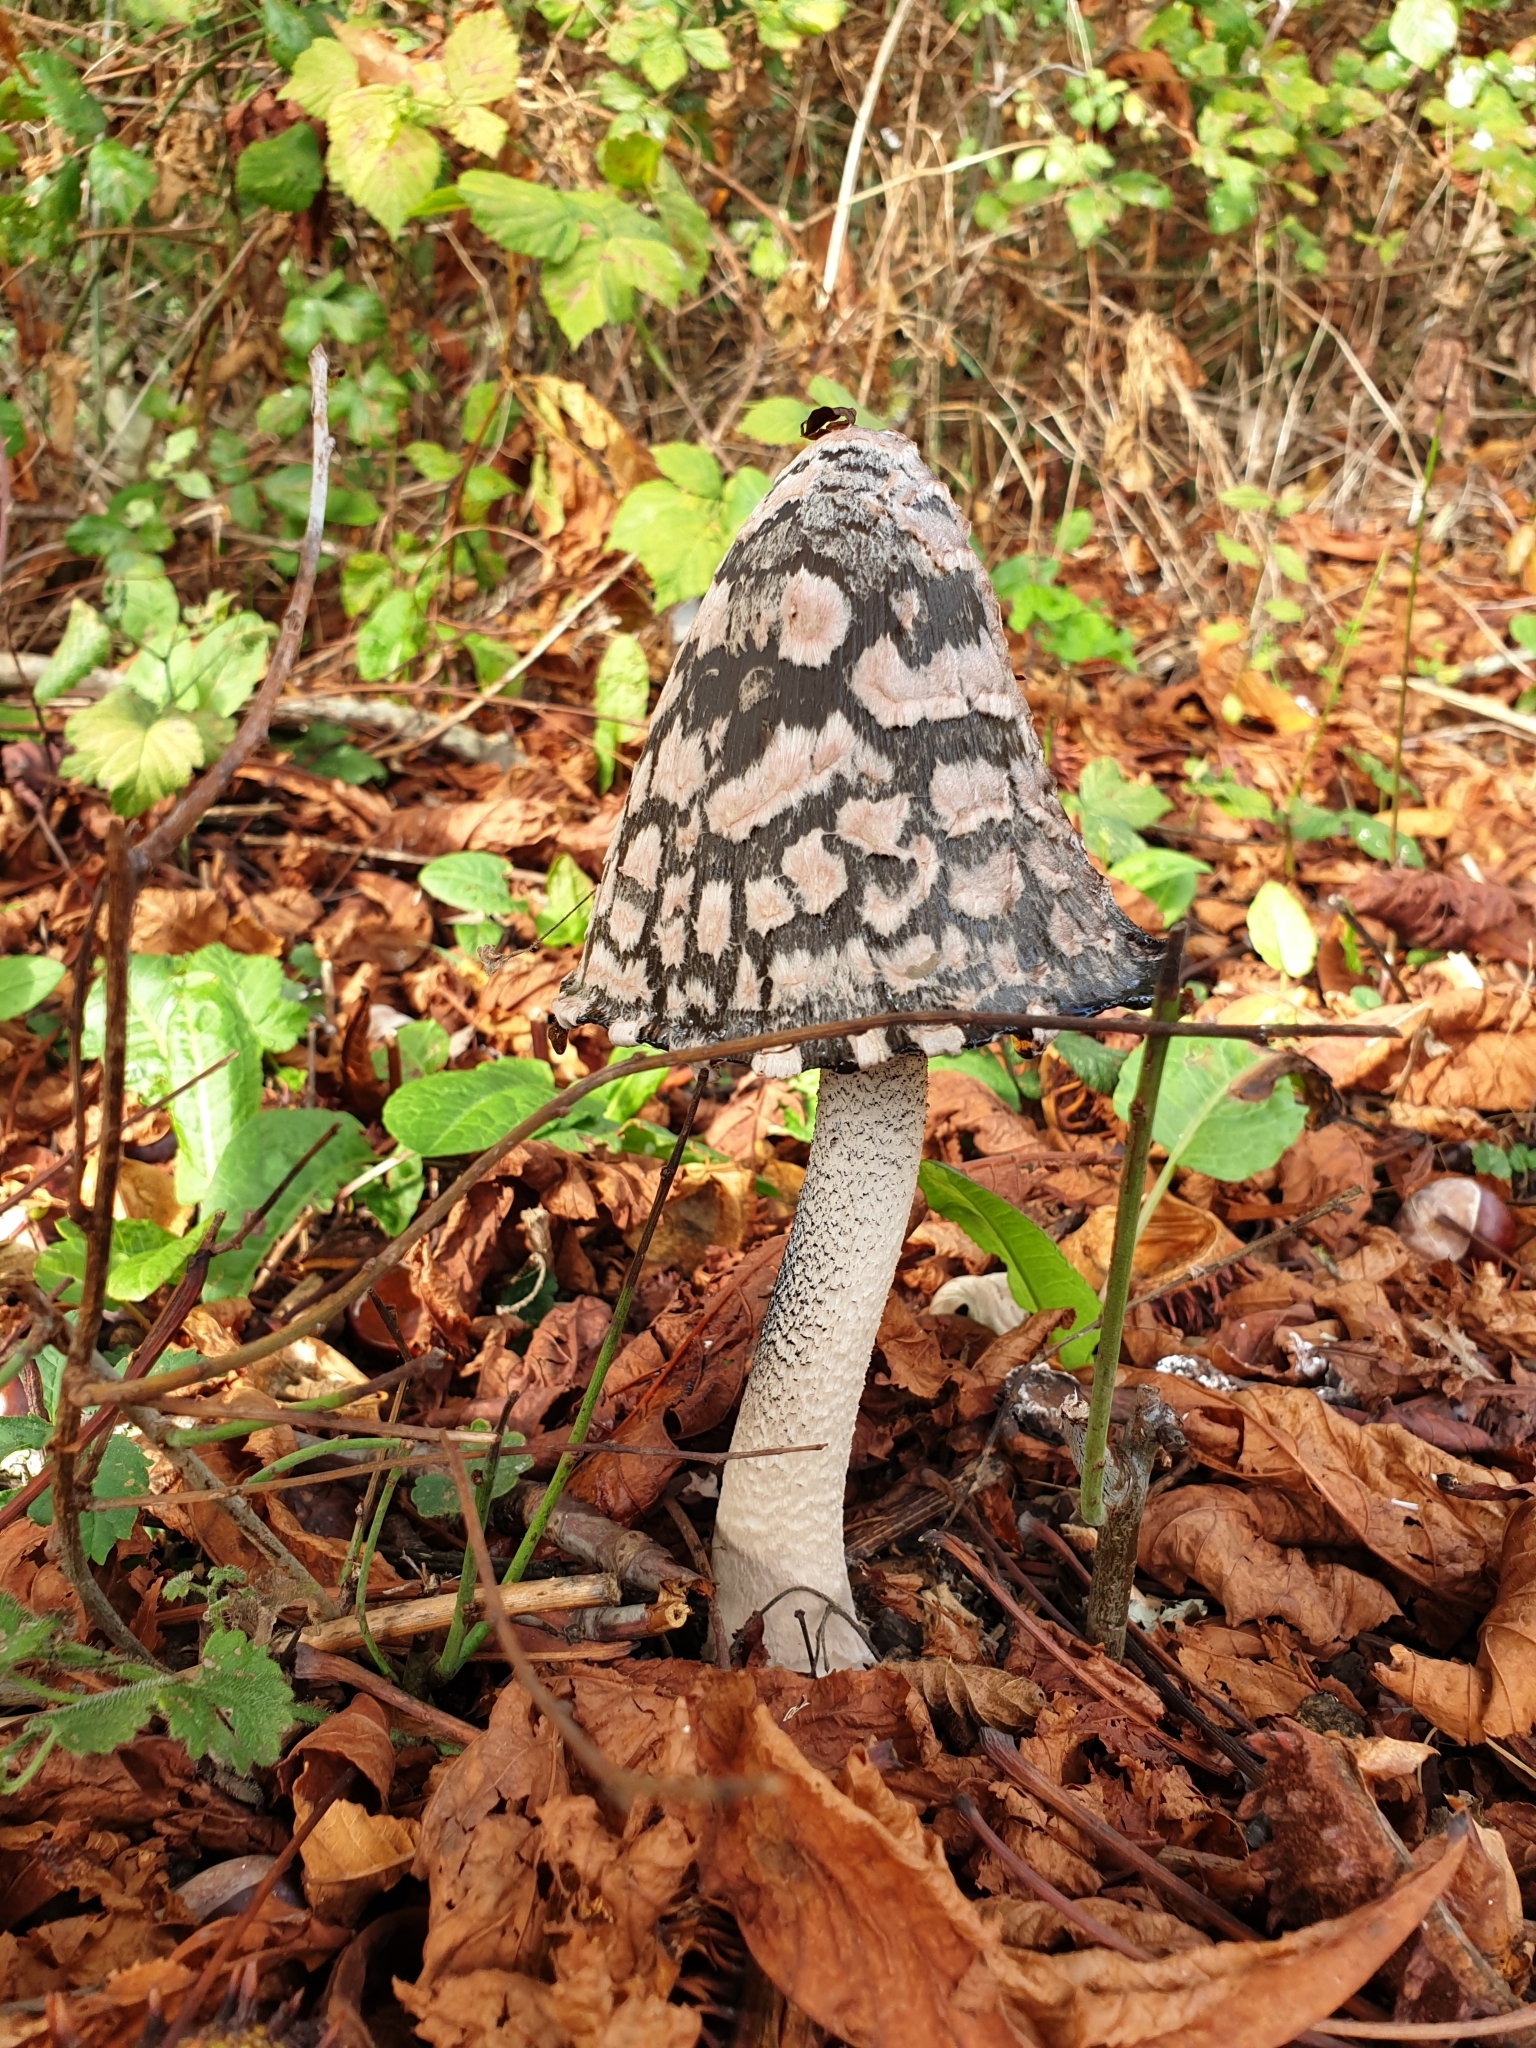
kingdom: Fungi
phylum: Basidiomycota
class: Agaricomycetes
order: Agaricales
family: Psathyrellaceae
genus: Coprinopsis
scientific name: Coprinopsis picacea
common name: Magpie inkcap
